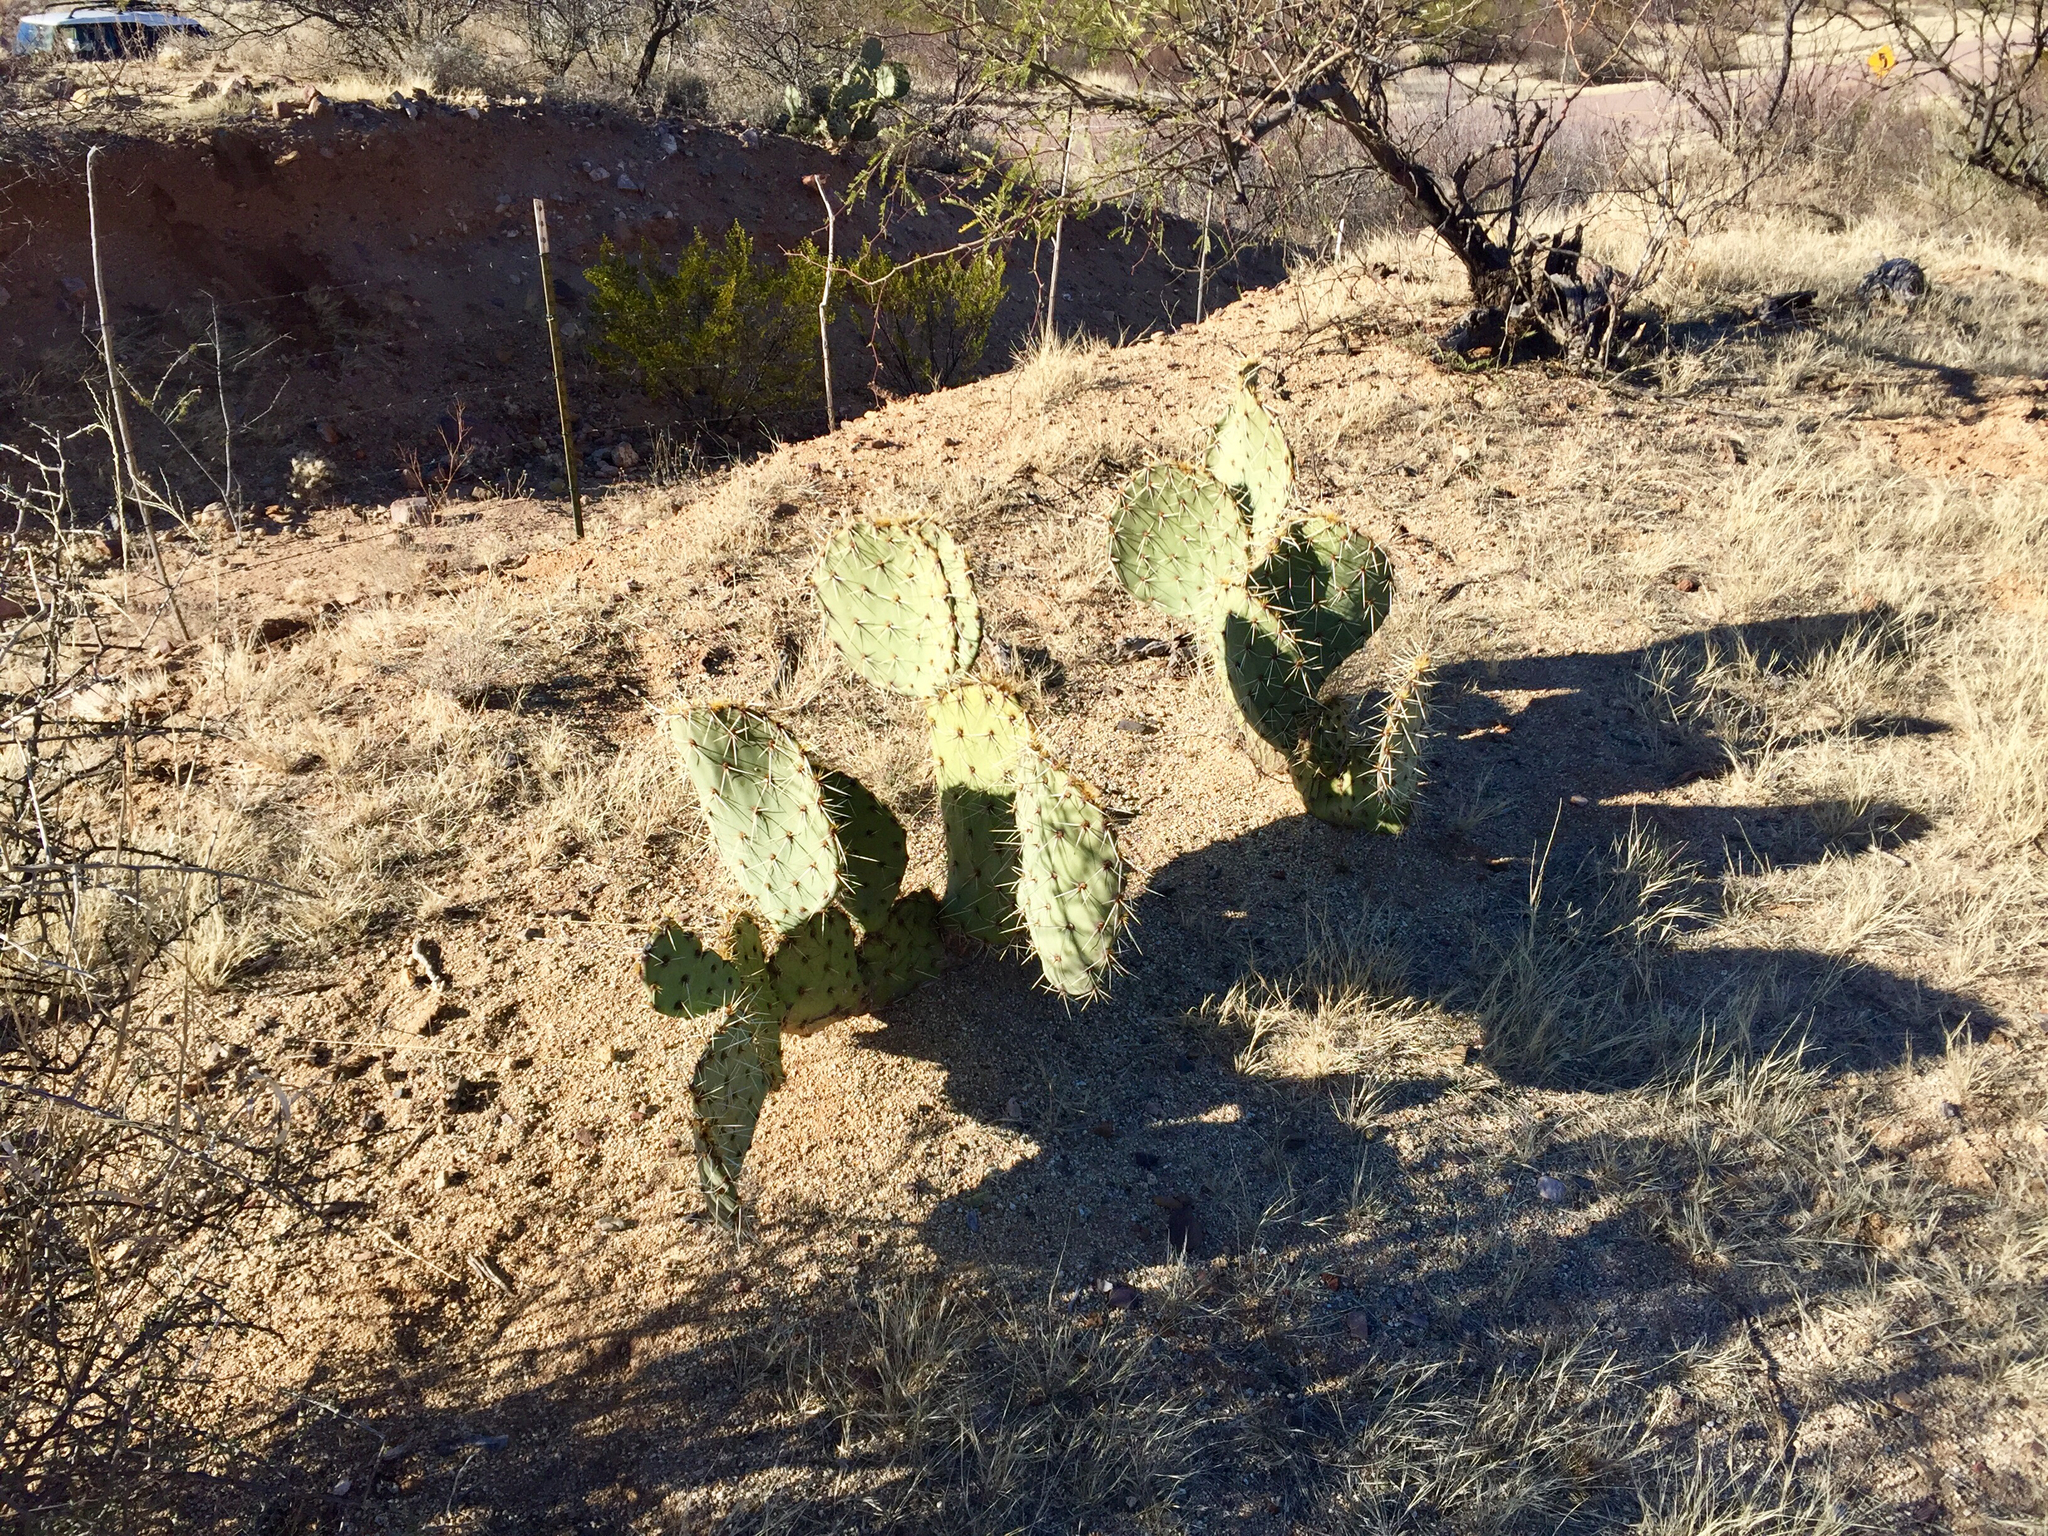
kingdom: Plantae
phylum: Tracheophyta
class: Magnoliopsida
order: Caryophyllales
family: Cactaceae
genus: Opuntia
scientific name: Opuntia engelmannii
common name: Cactus-apple
